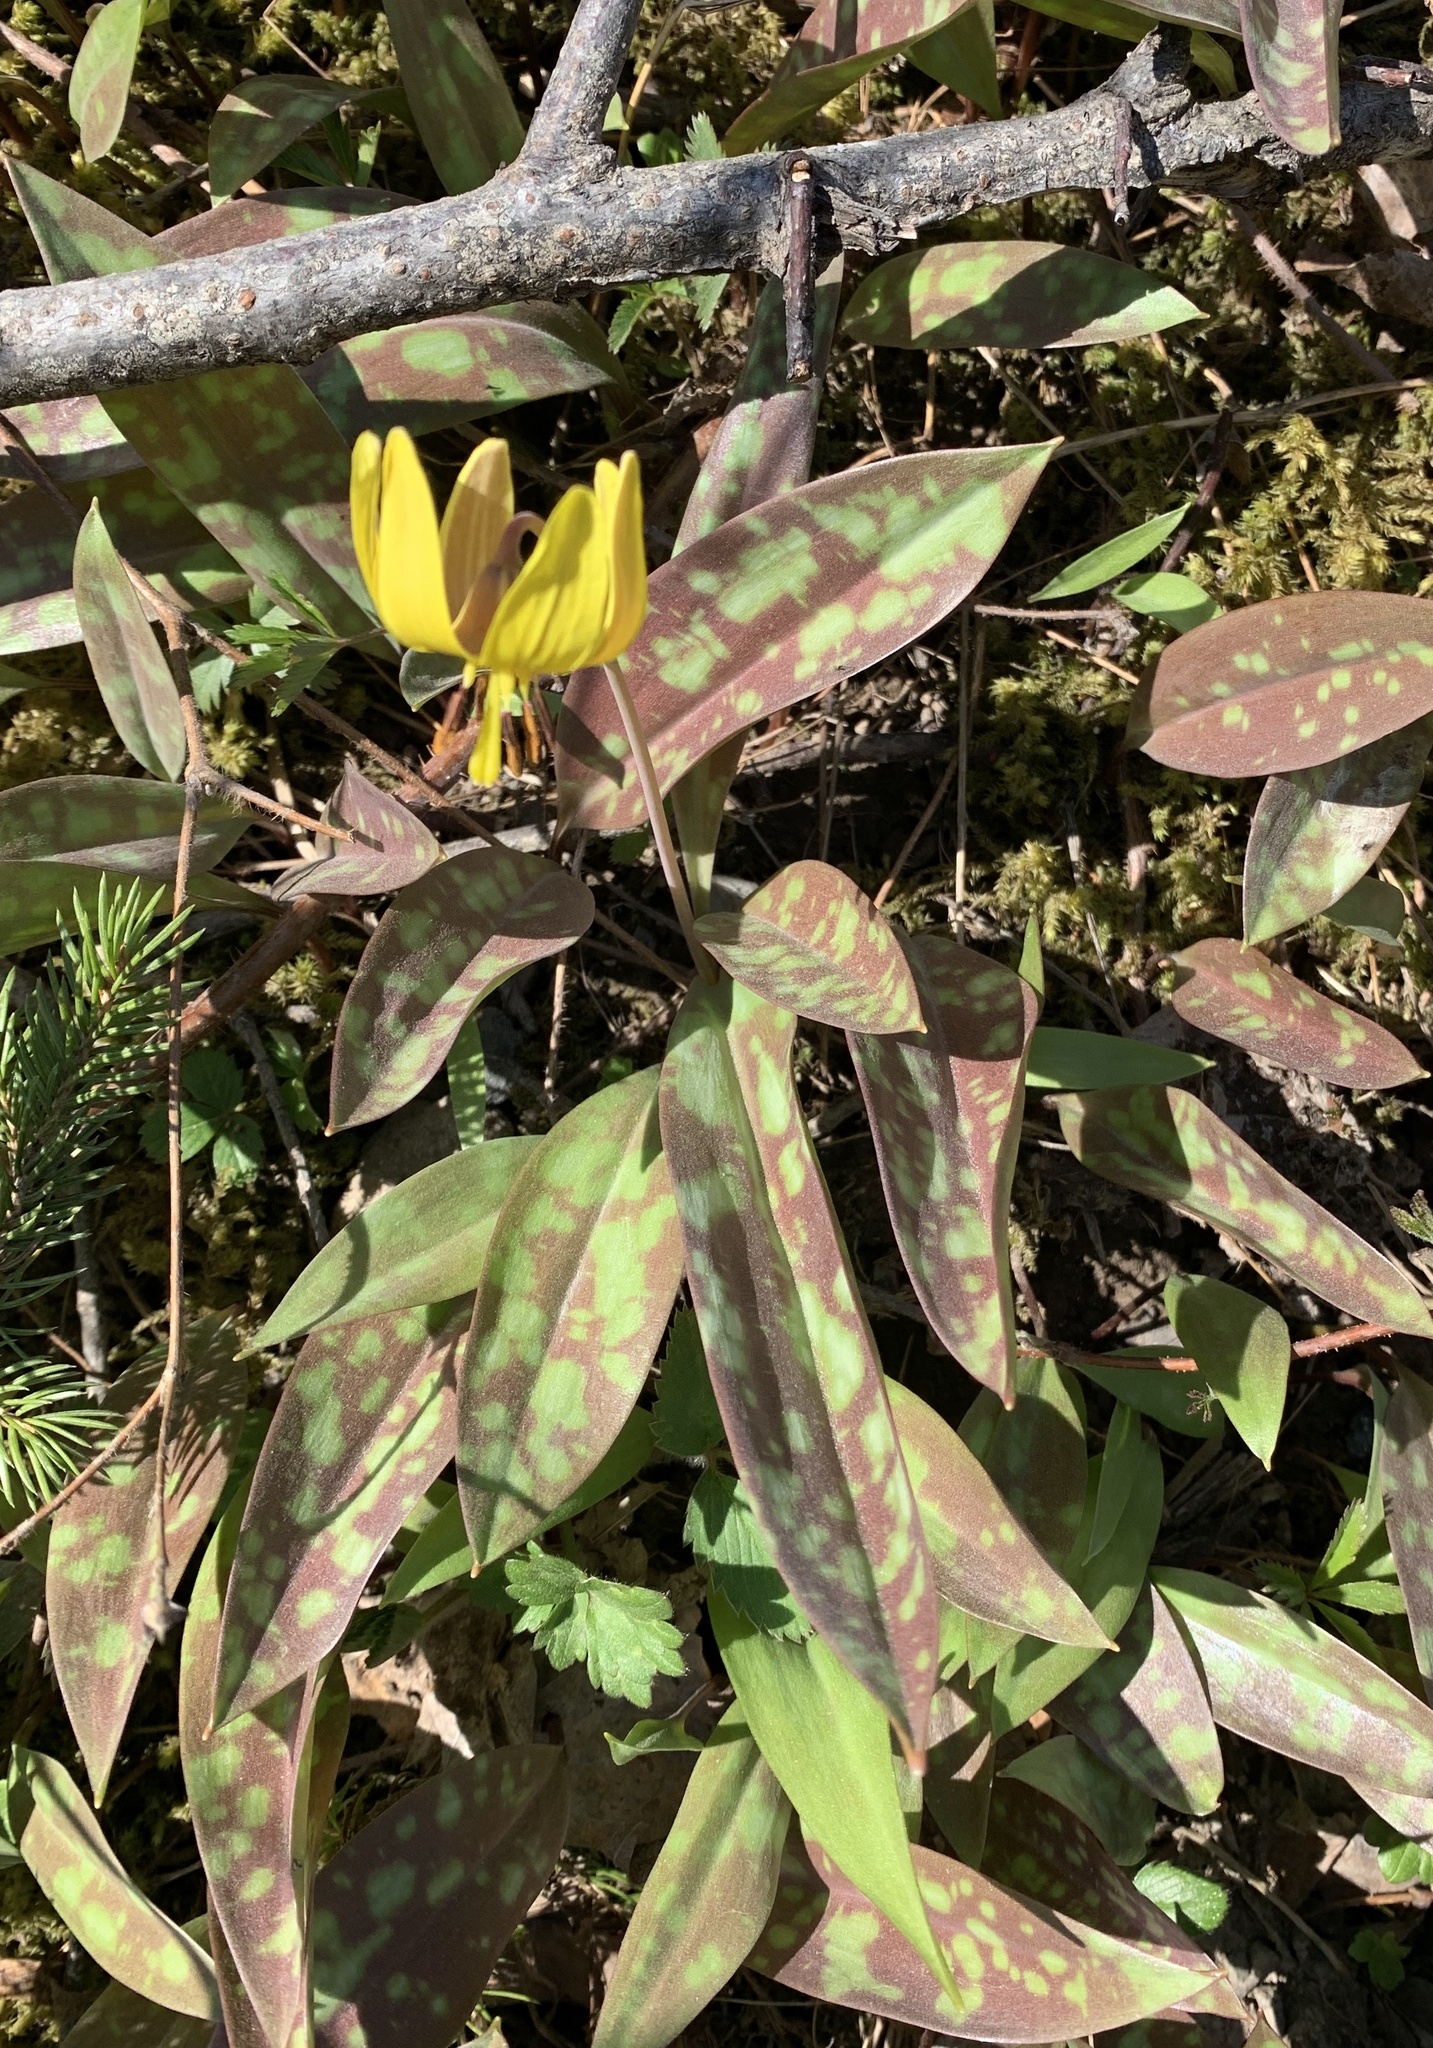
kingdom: Plantae
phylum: Tracheophyta
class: Liliopsida
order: Liliales
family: Liliaceae
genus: Erythronium
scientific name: Erythronium americanum
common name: Yellow adder's-tongue
